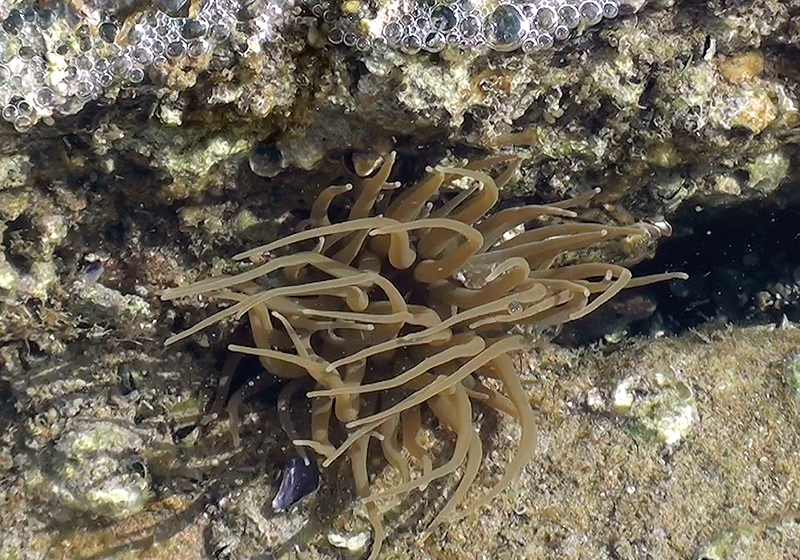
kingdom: Animalia
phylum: Cnidaria
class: Anthozoa
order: Actiniaria
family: Actiniidae
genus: Anemonia
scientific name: Anemonia viridis
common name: Snakelocks anemone
